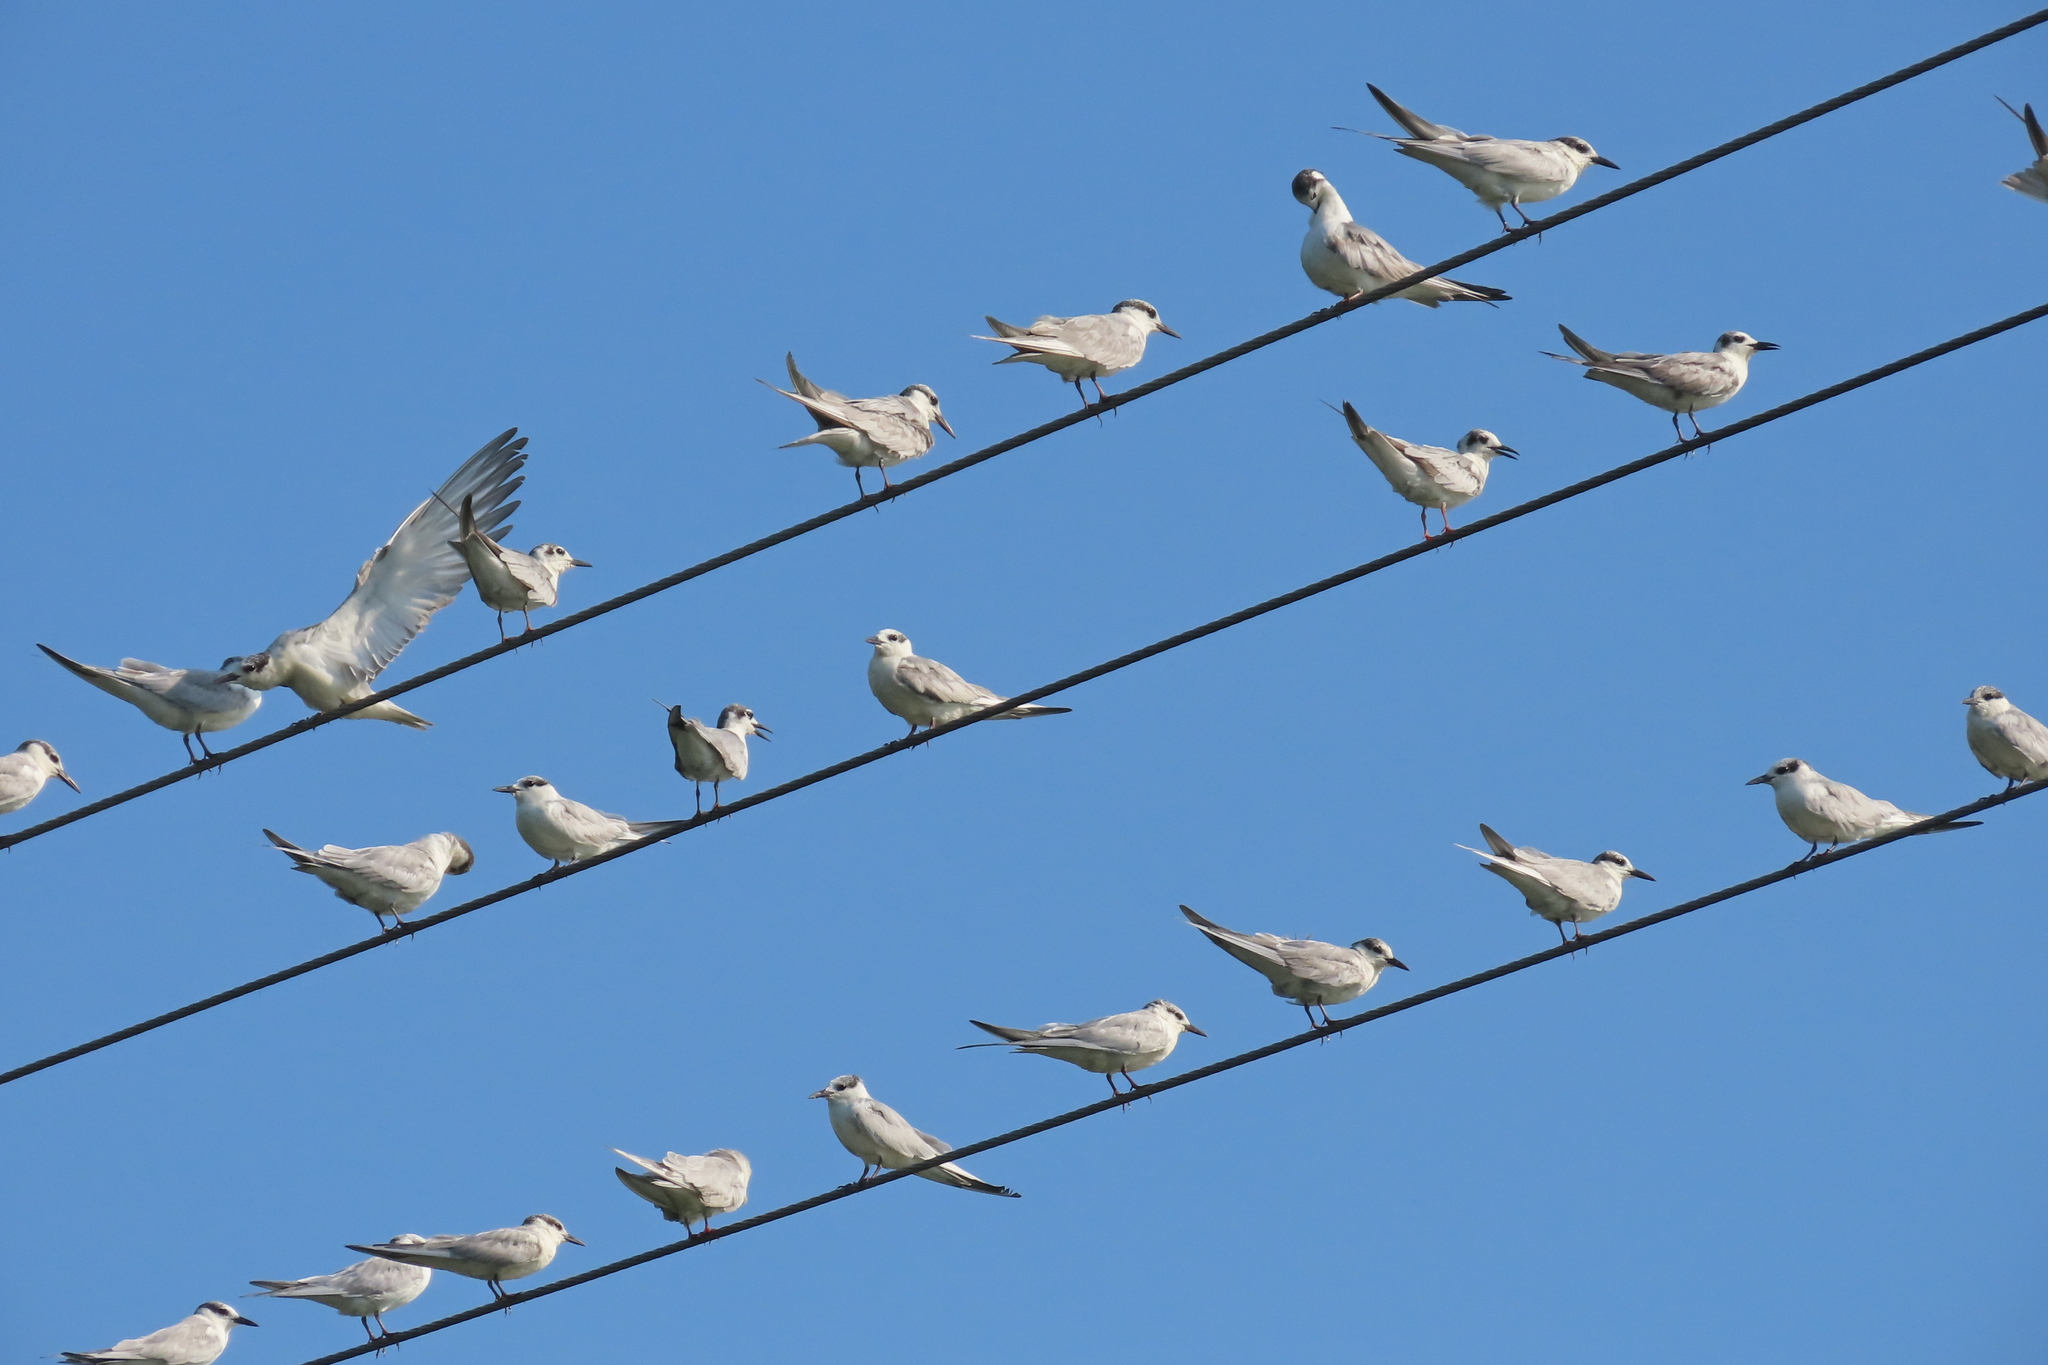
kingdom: Animalia
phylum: Chordata
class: Aves
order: Charadriiformes
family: Laridae
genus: Chlidonias
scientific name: Chlidonias hybrida
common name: Whiskered tern
